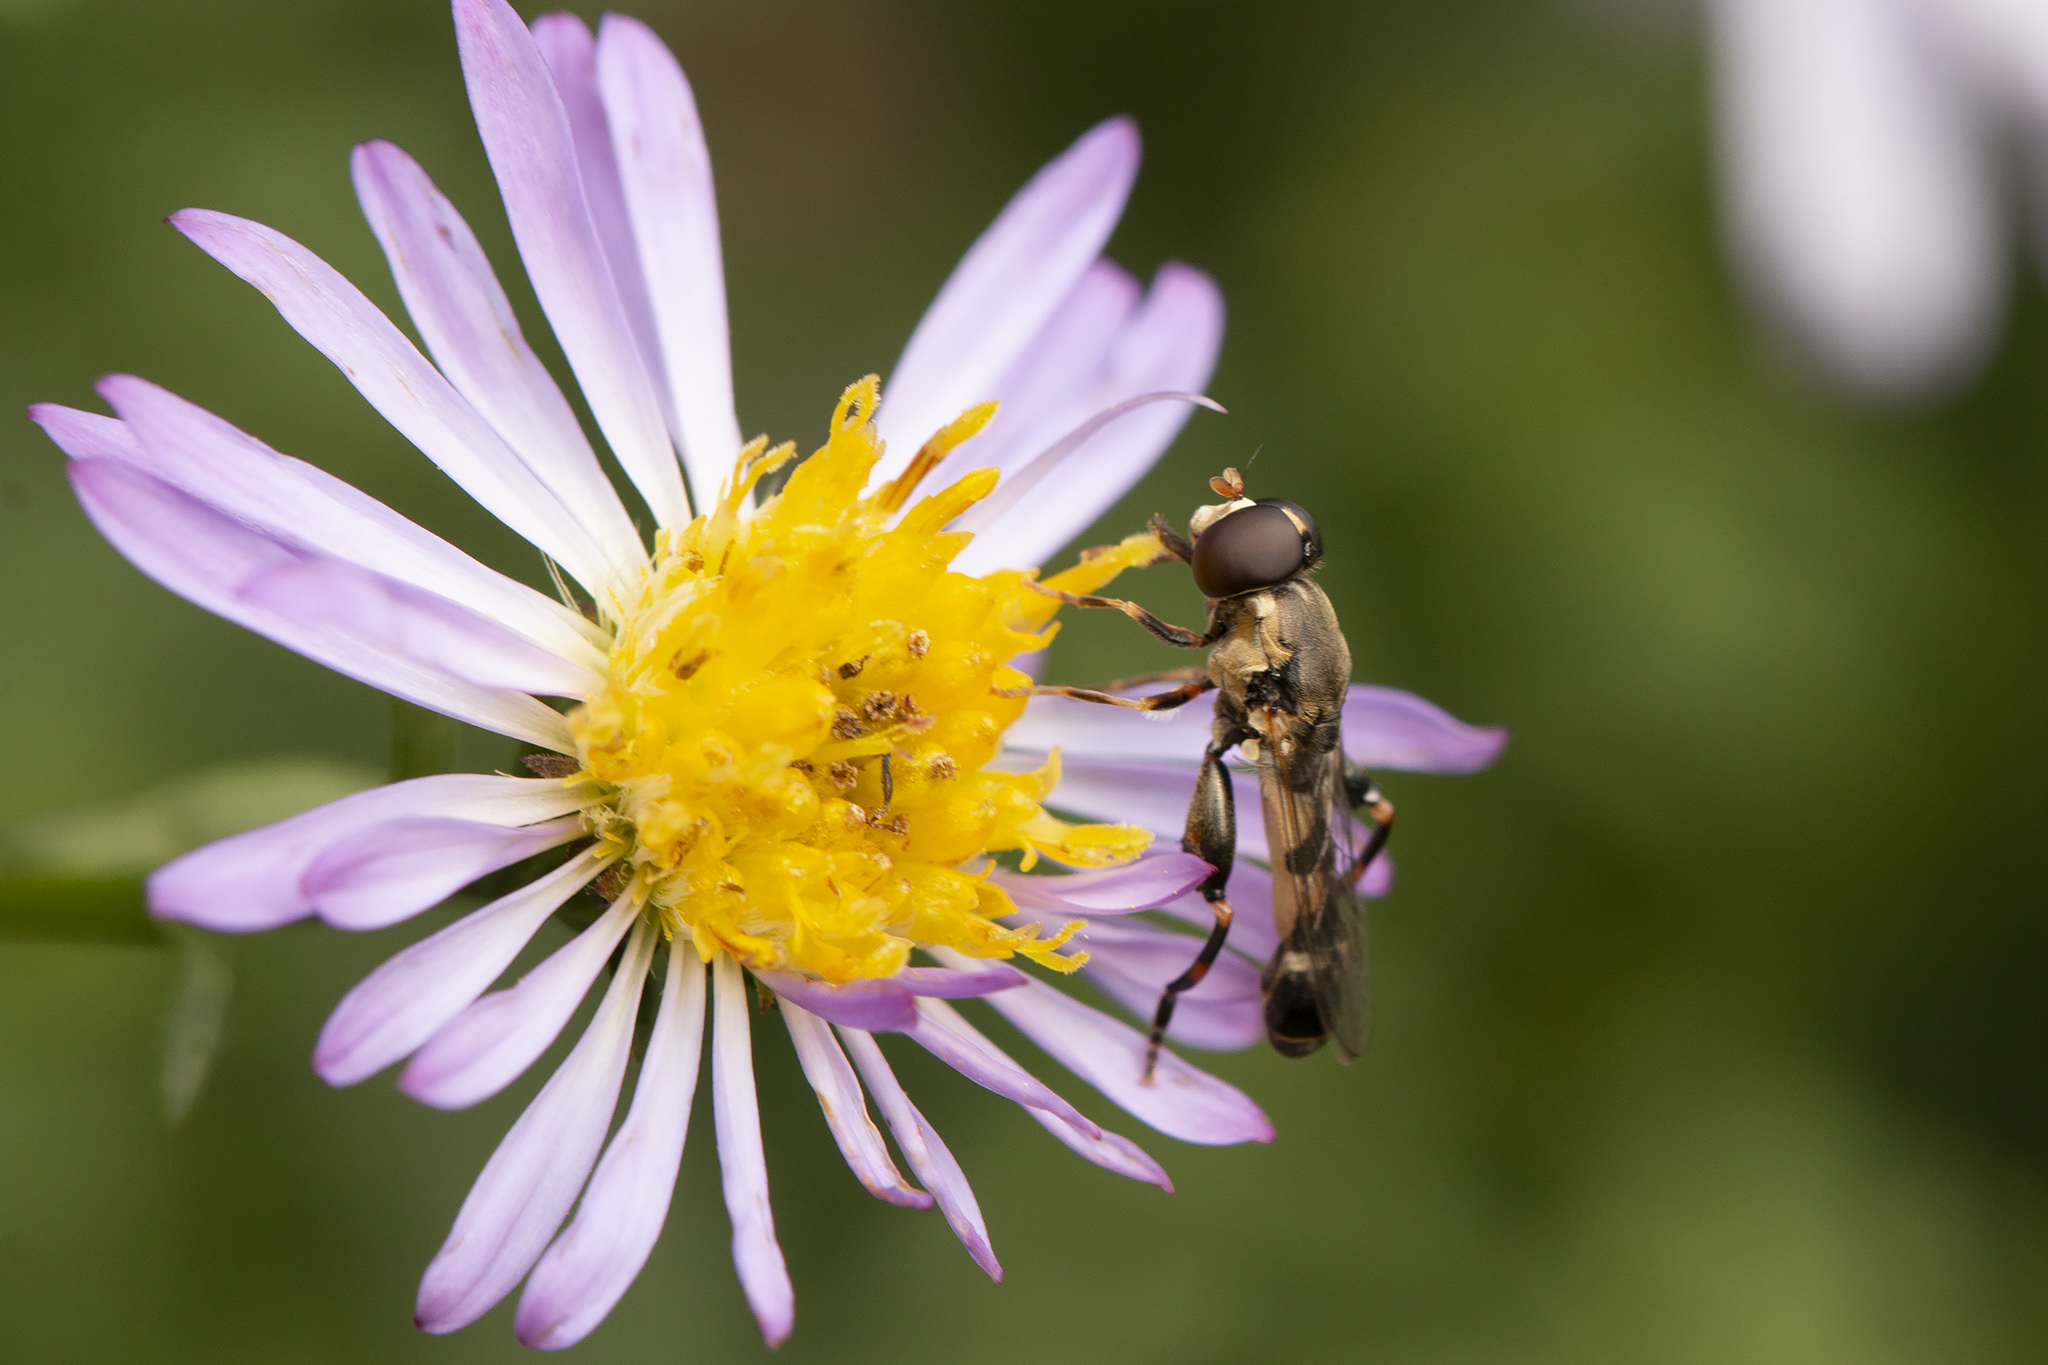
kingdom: Animalia
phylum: Arthropoda
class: Insecta
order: Diptera
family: Syrphidae
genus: Syritta
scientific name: Syritta pipiens
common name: Hover fly
